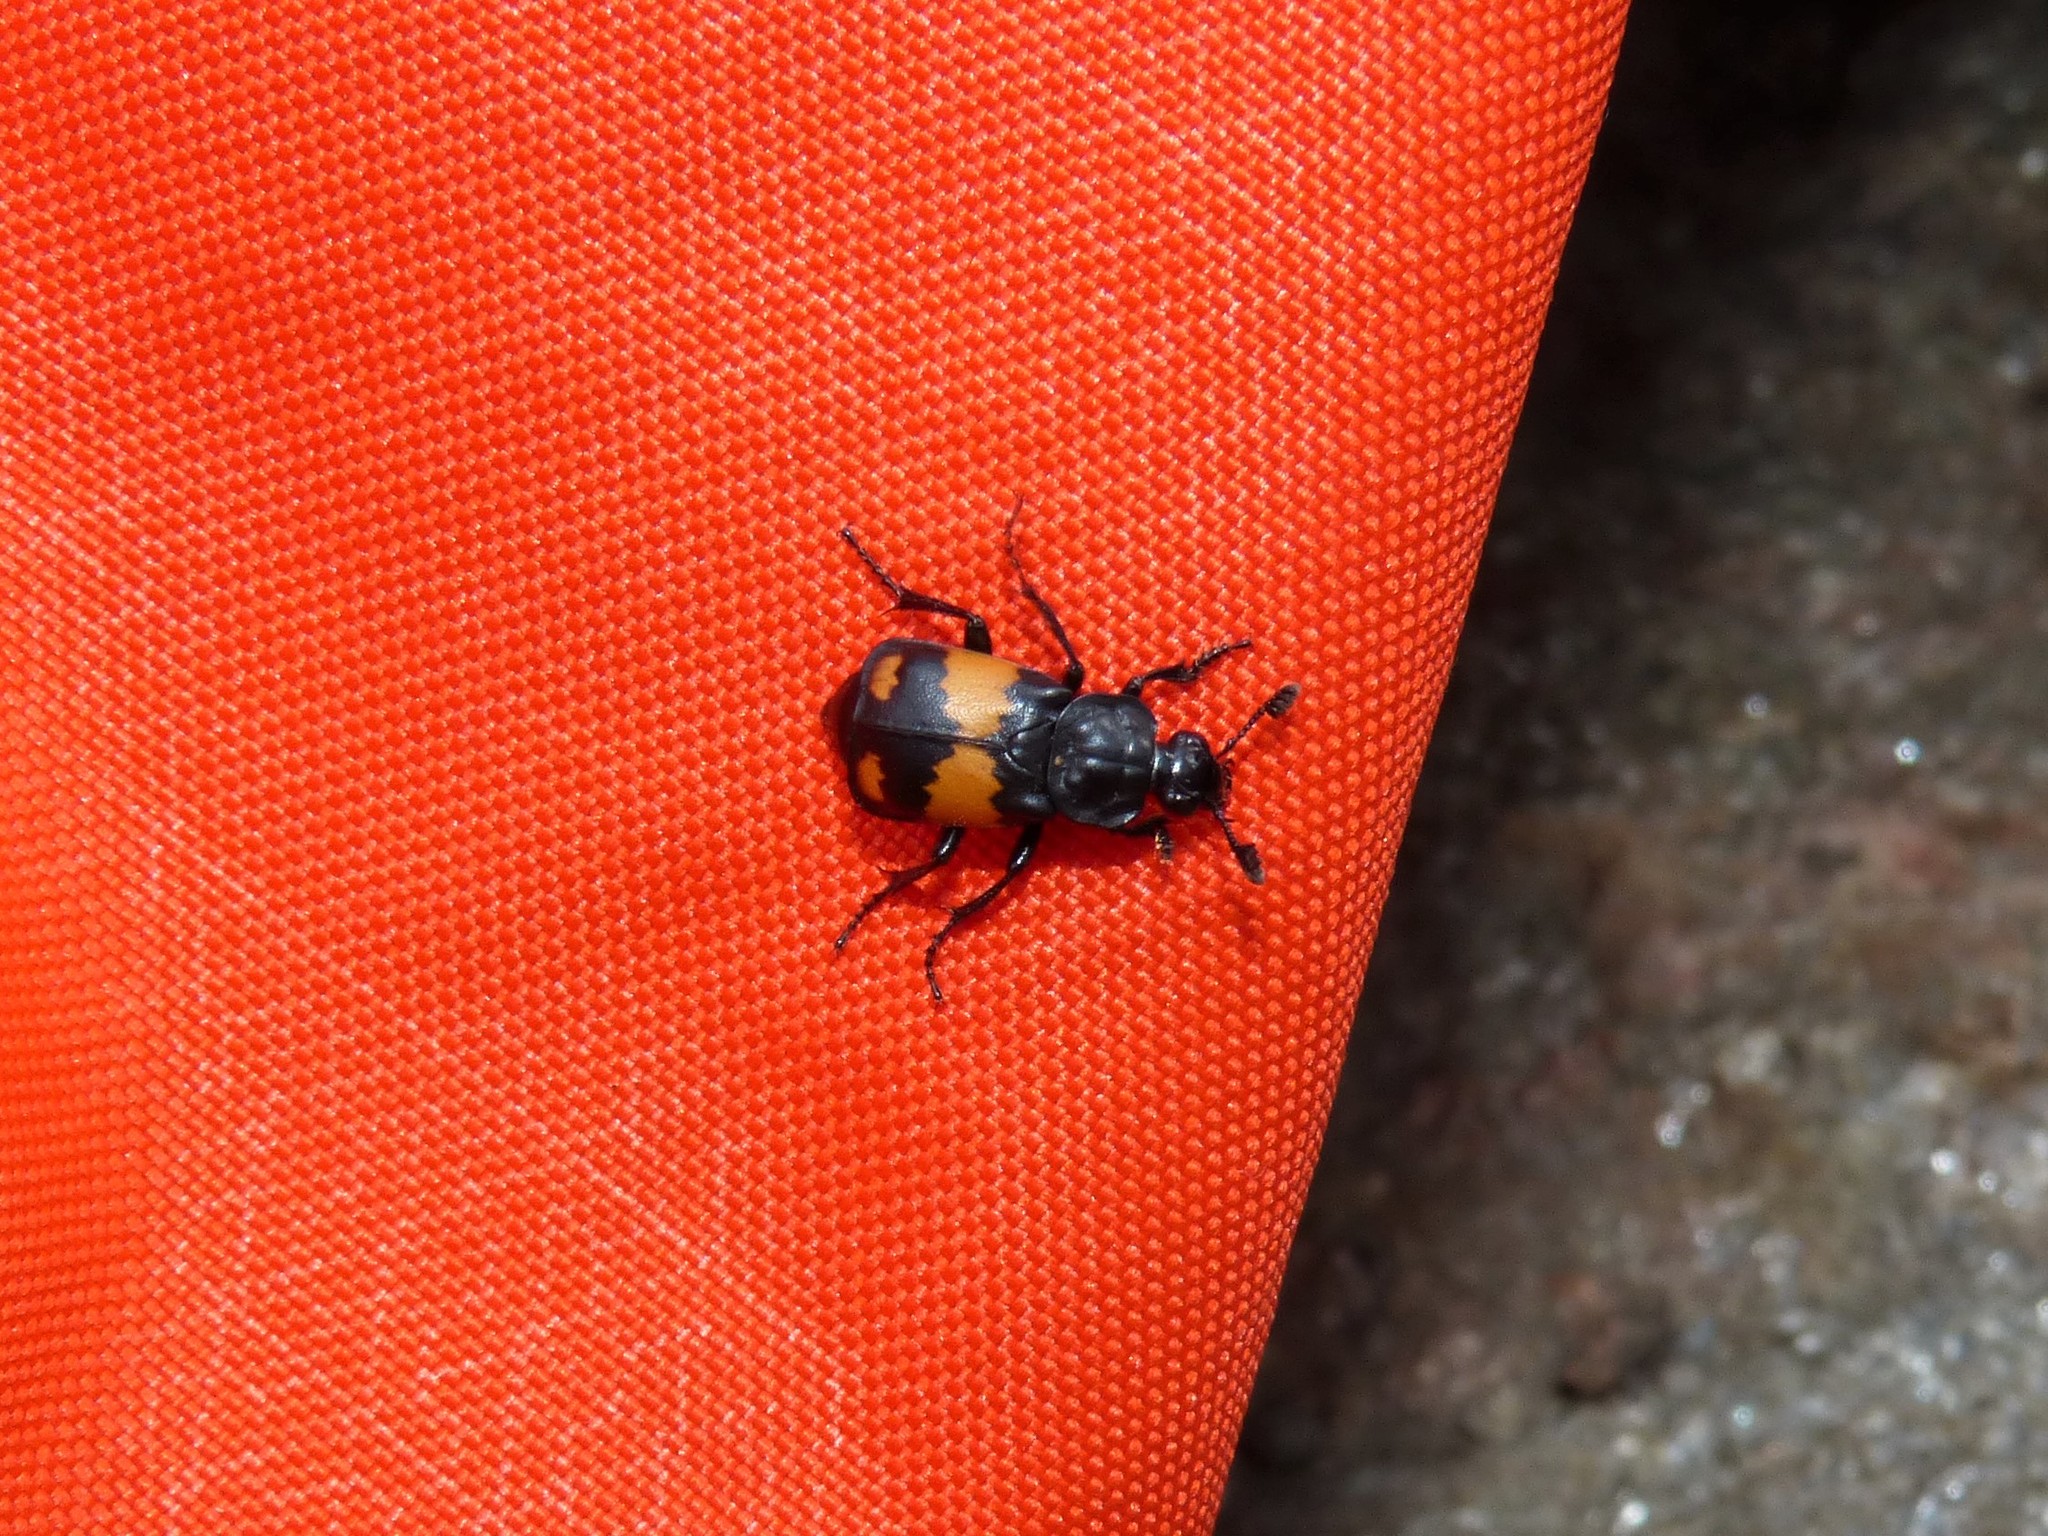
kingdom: Animalia
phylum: Arthropoda
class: Insecta
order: Coleoptera
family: Staphylinidae
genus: Nicrophorus
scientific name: Nicrophorus vespilloides
